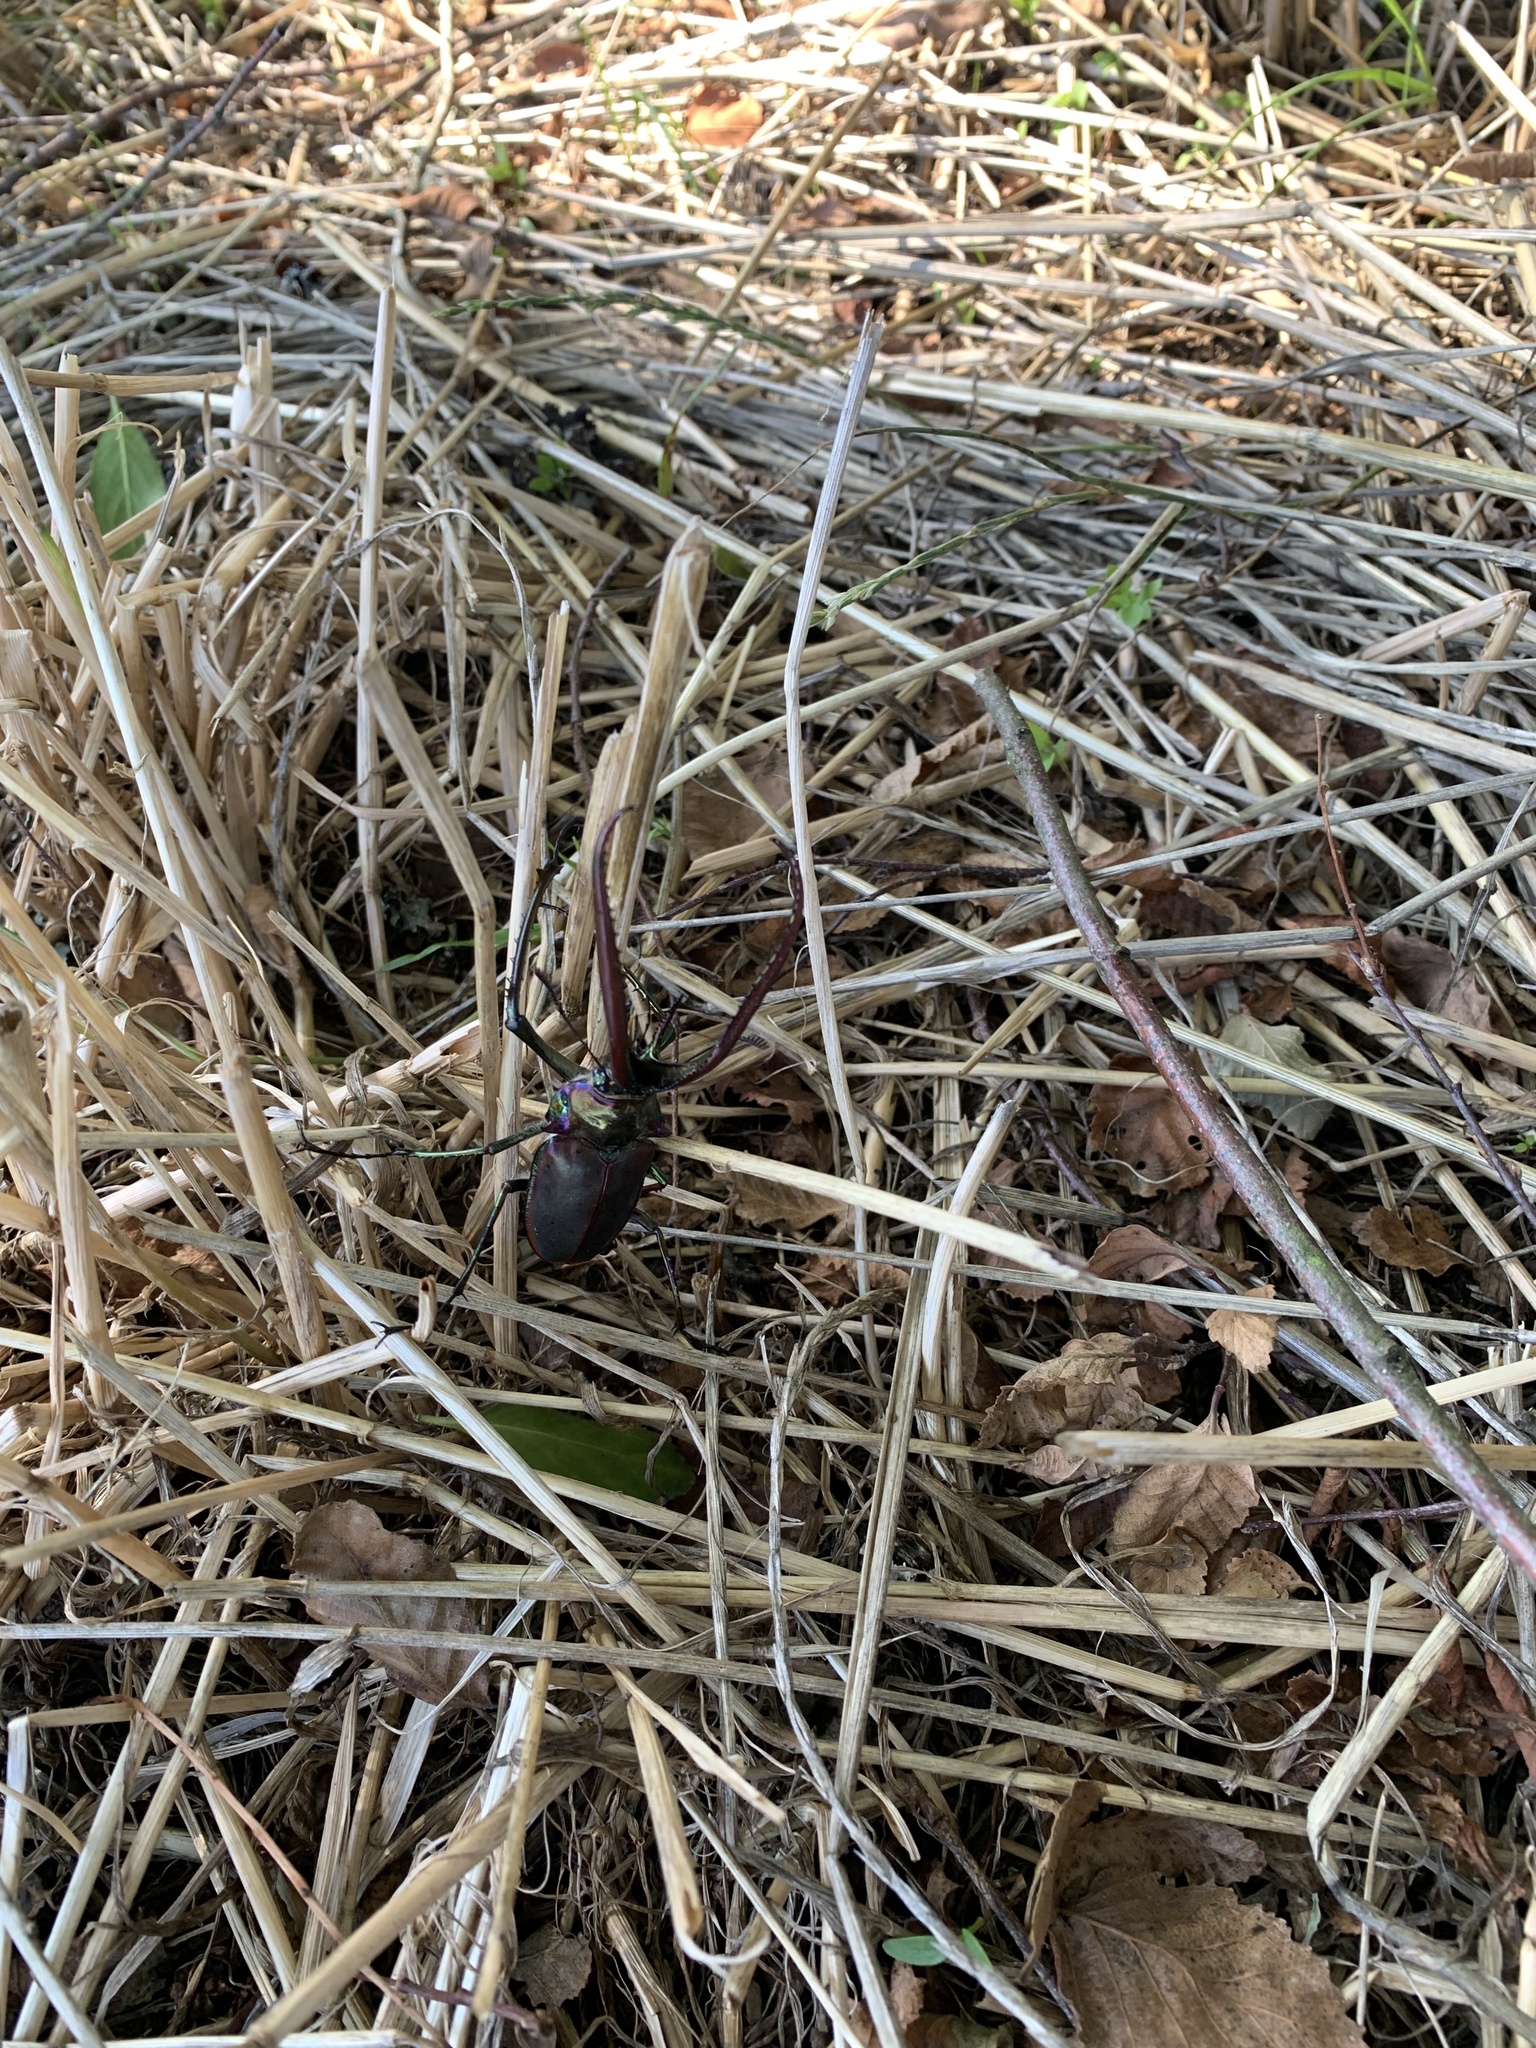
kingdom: Animalia
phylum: Arthropoda
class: Insecta
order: Coleoptera
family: Lucanidae
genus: Chiasognathus
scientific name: Chiasognathus grantii
